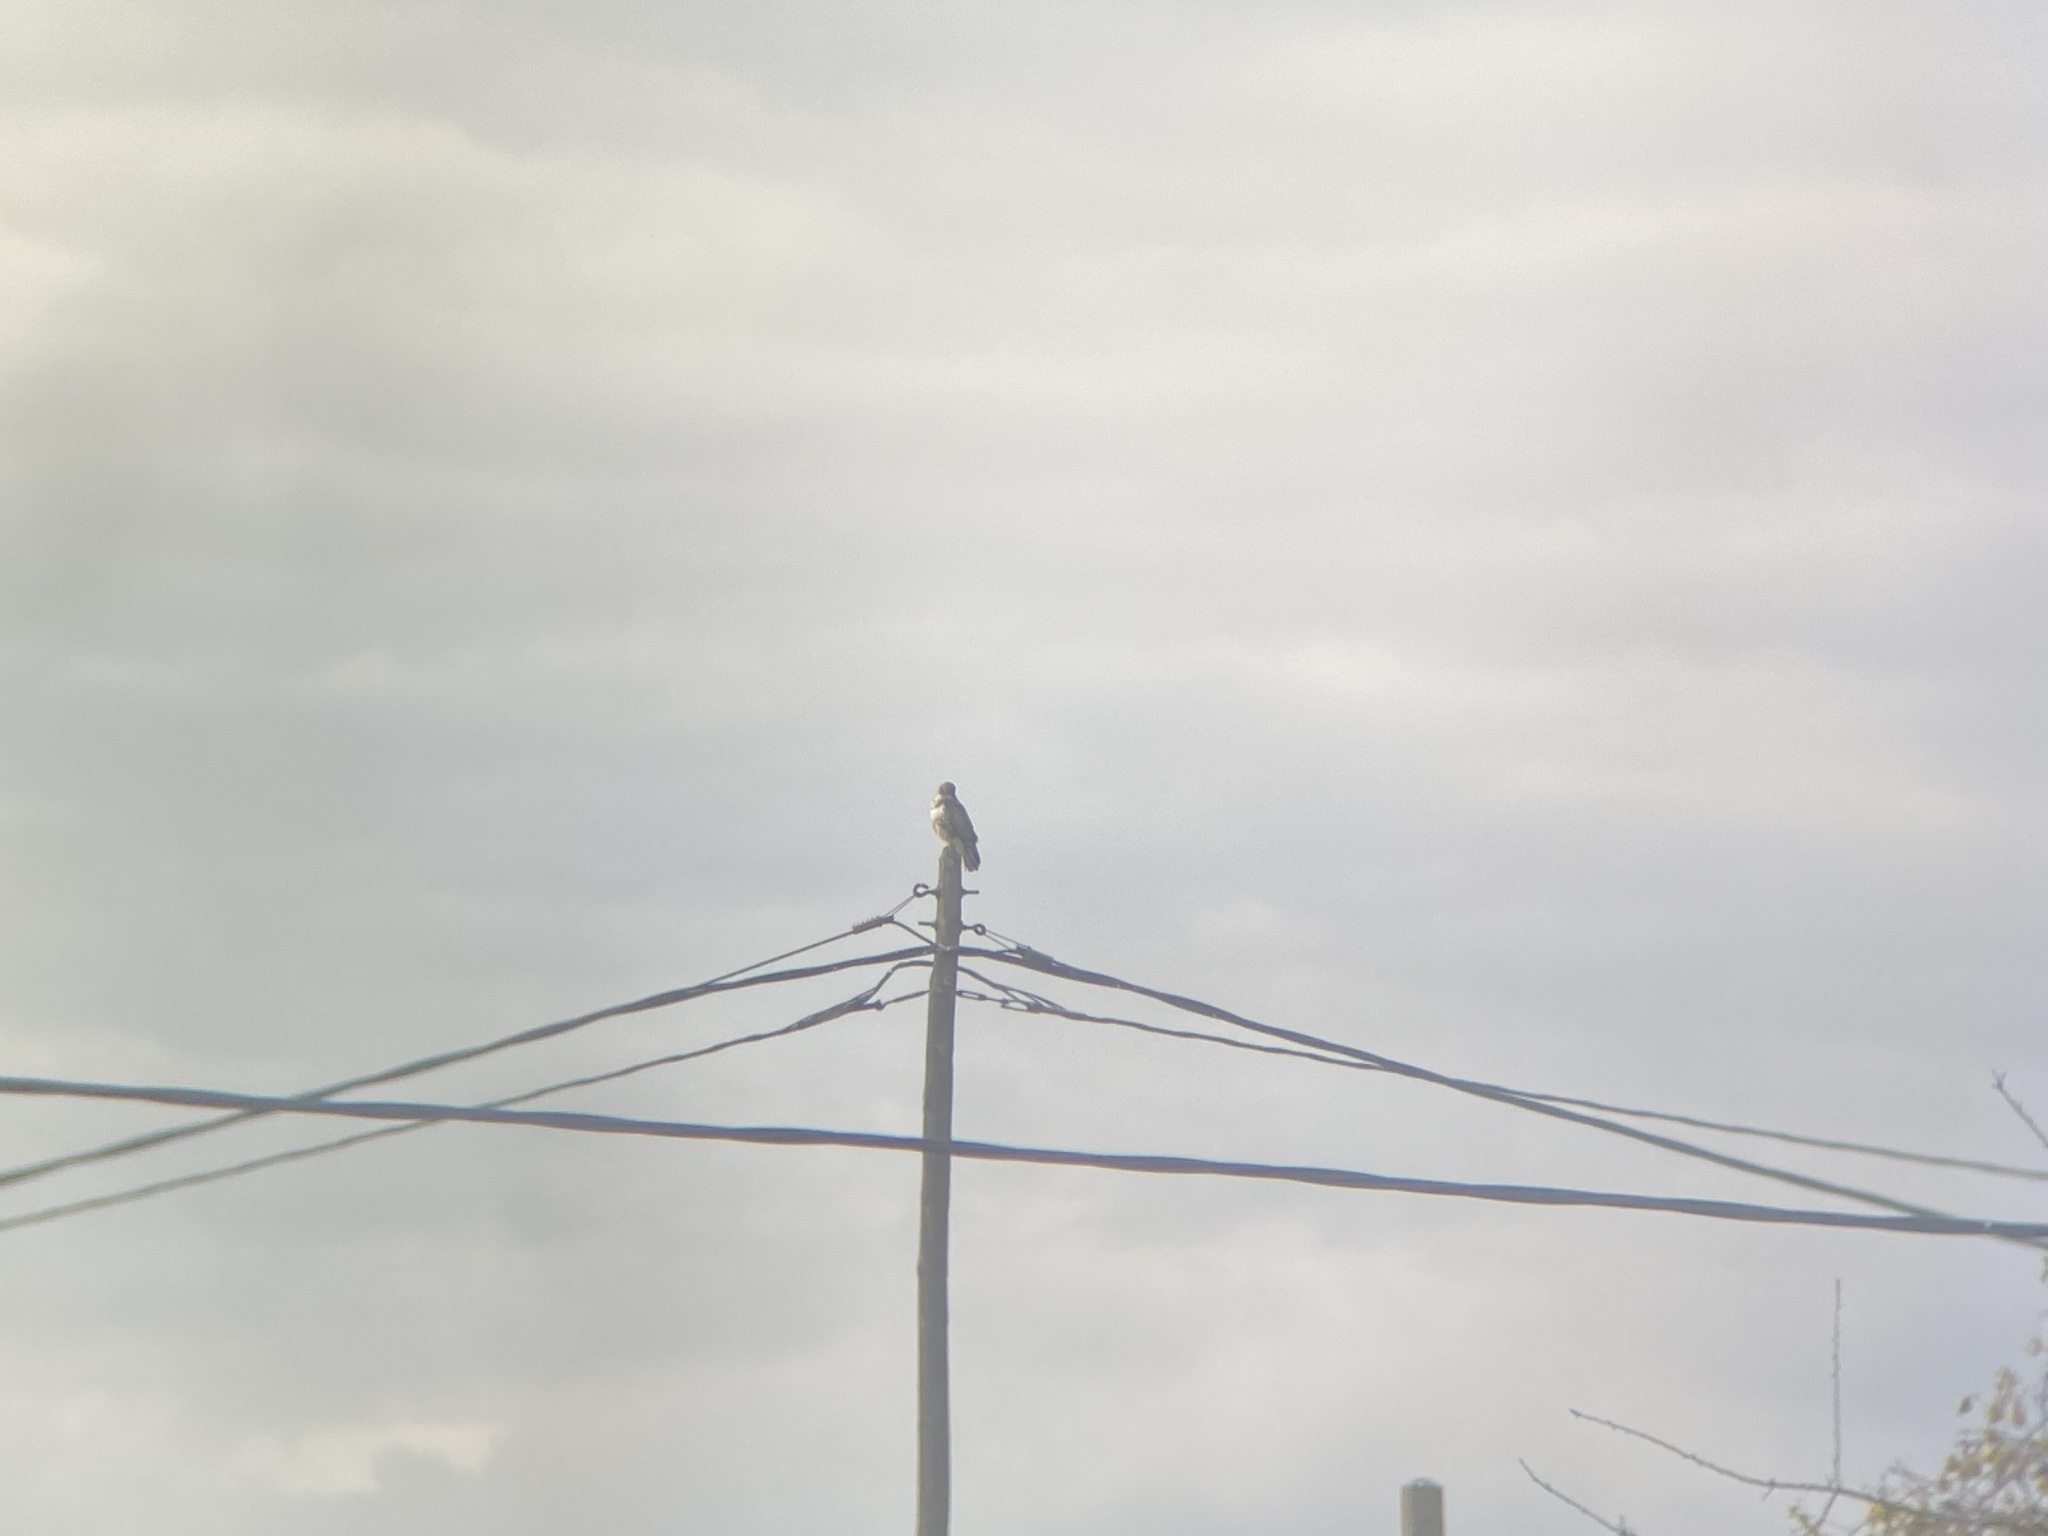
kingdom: Animalia
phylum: Chordata
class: Aves
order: Accipitriformes
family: Accipitridae
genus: Buteo
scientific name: Buteo buteo
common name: Common buzzard
